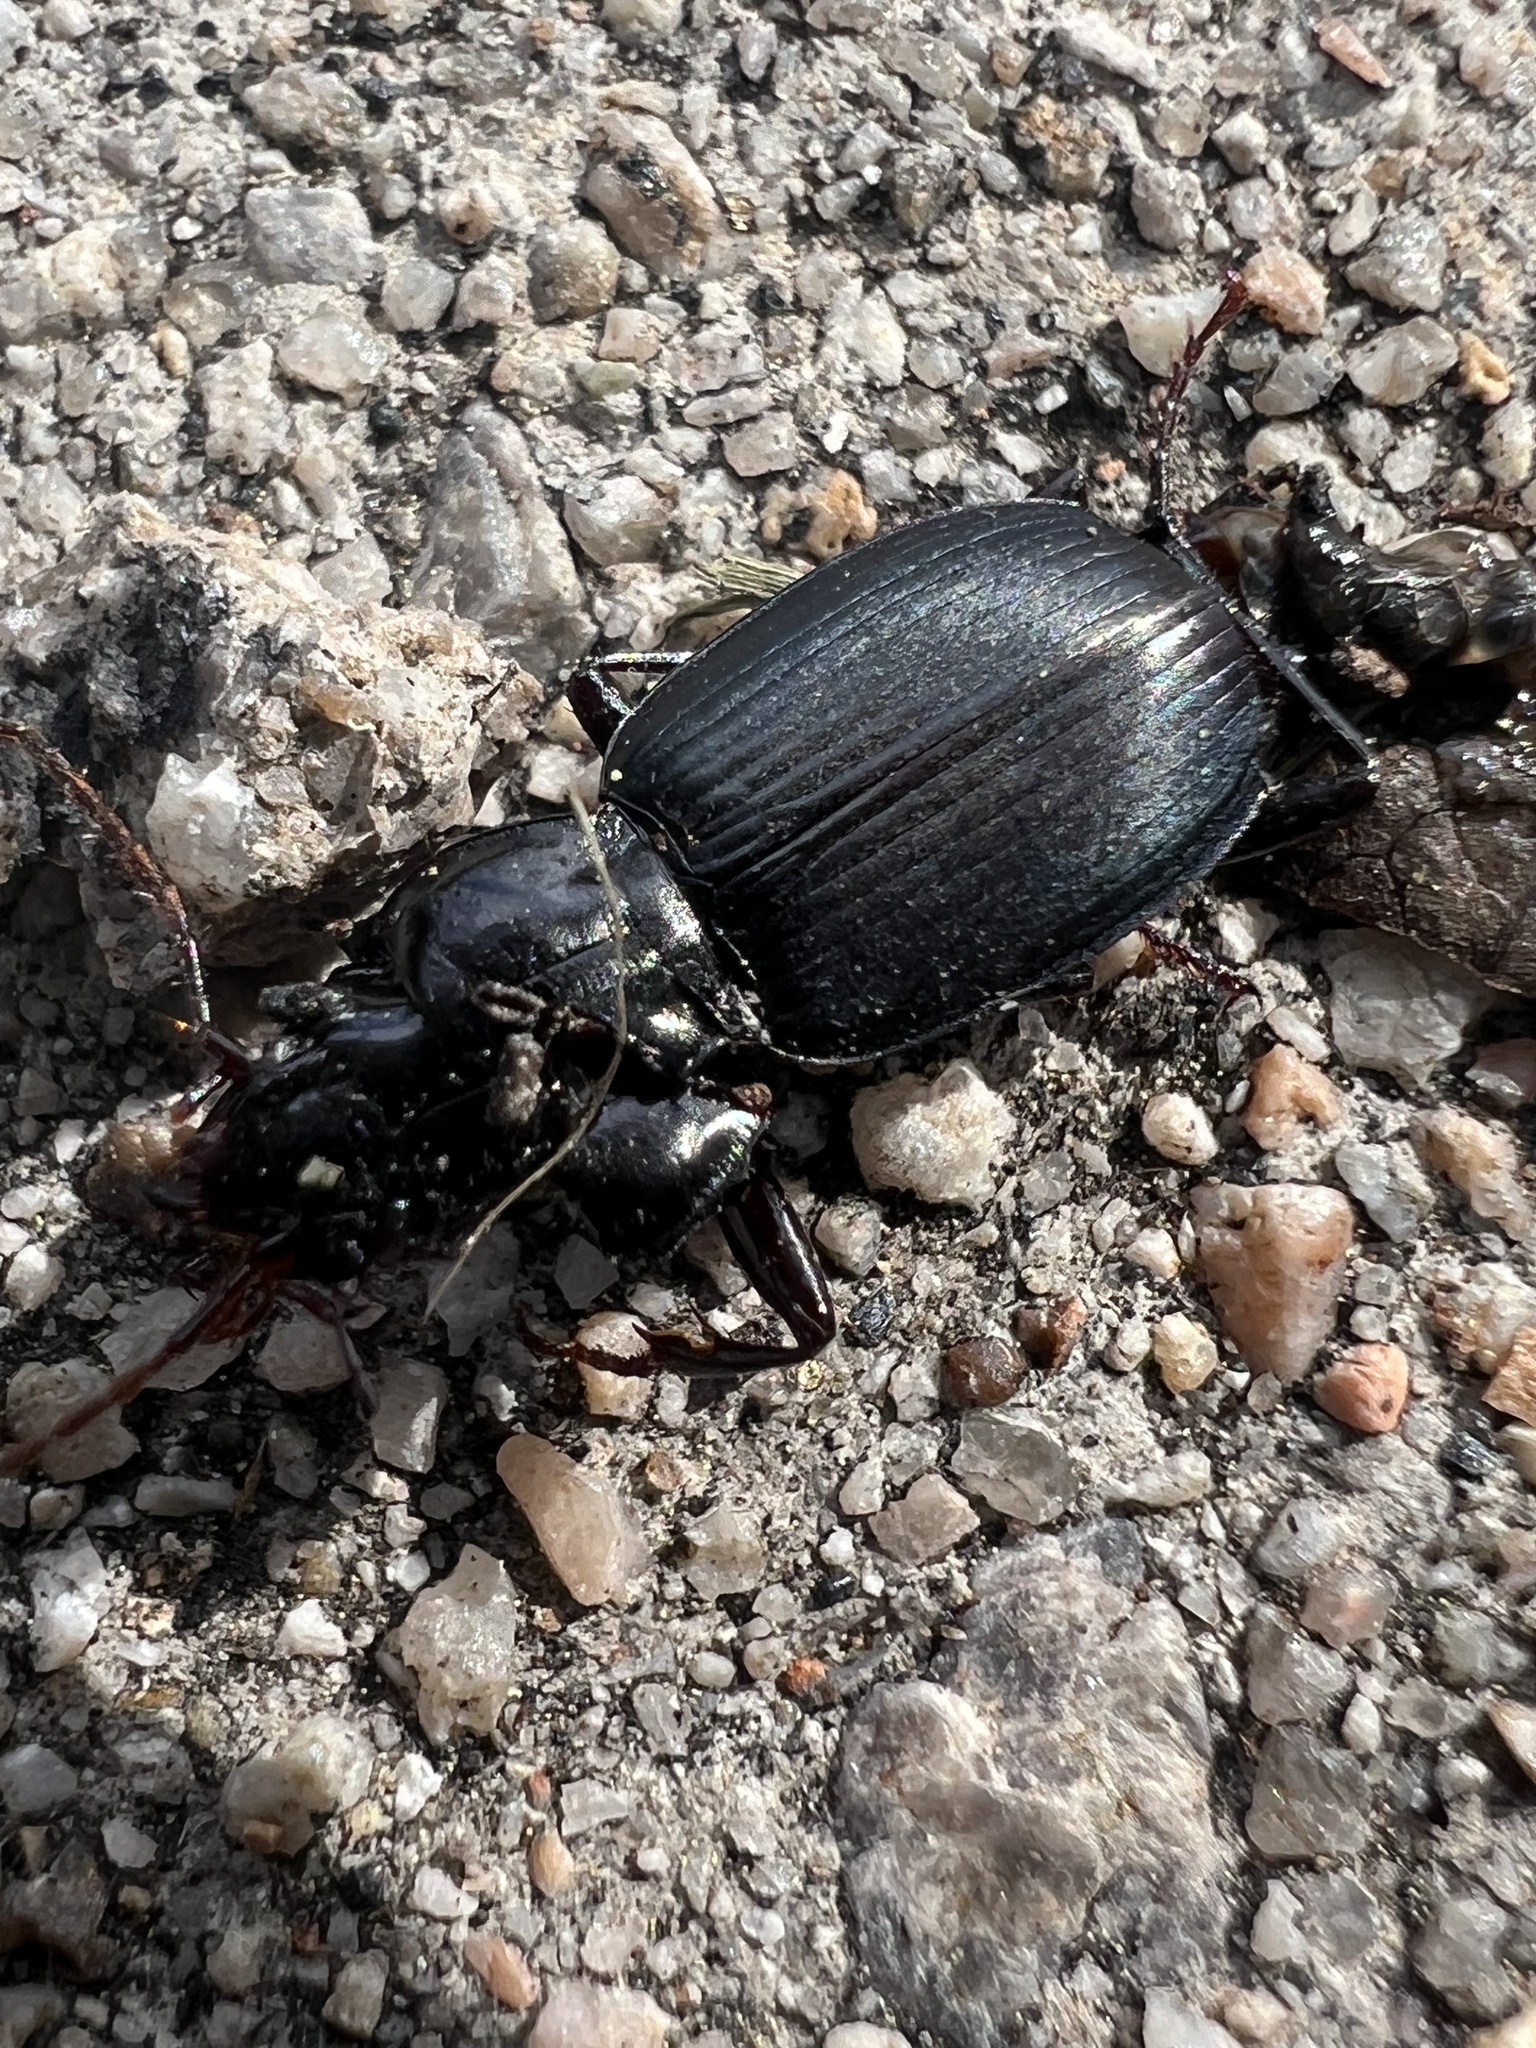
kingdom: Animalia
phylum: Arthropoda
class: Insecta
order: Coleoptera
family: Carabidae
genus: Laemostenus
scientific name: Laemostenus complanatus
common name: Cosmopolitan ground beetle
